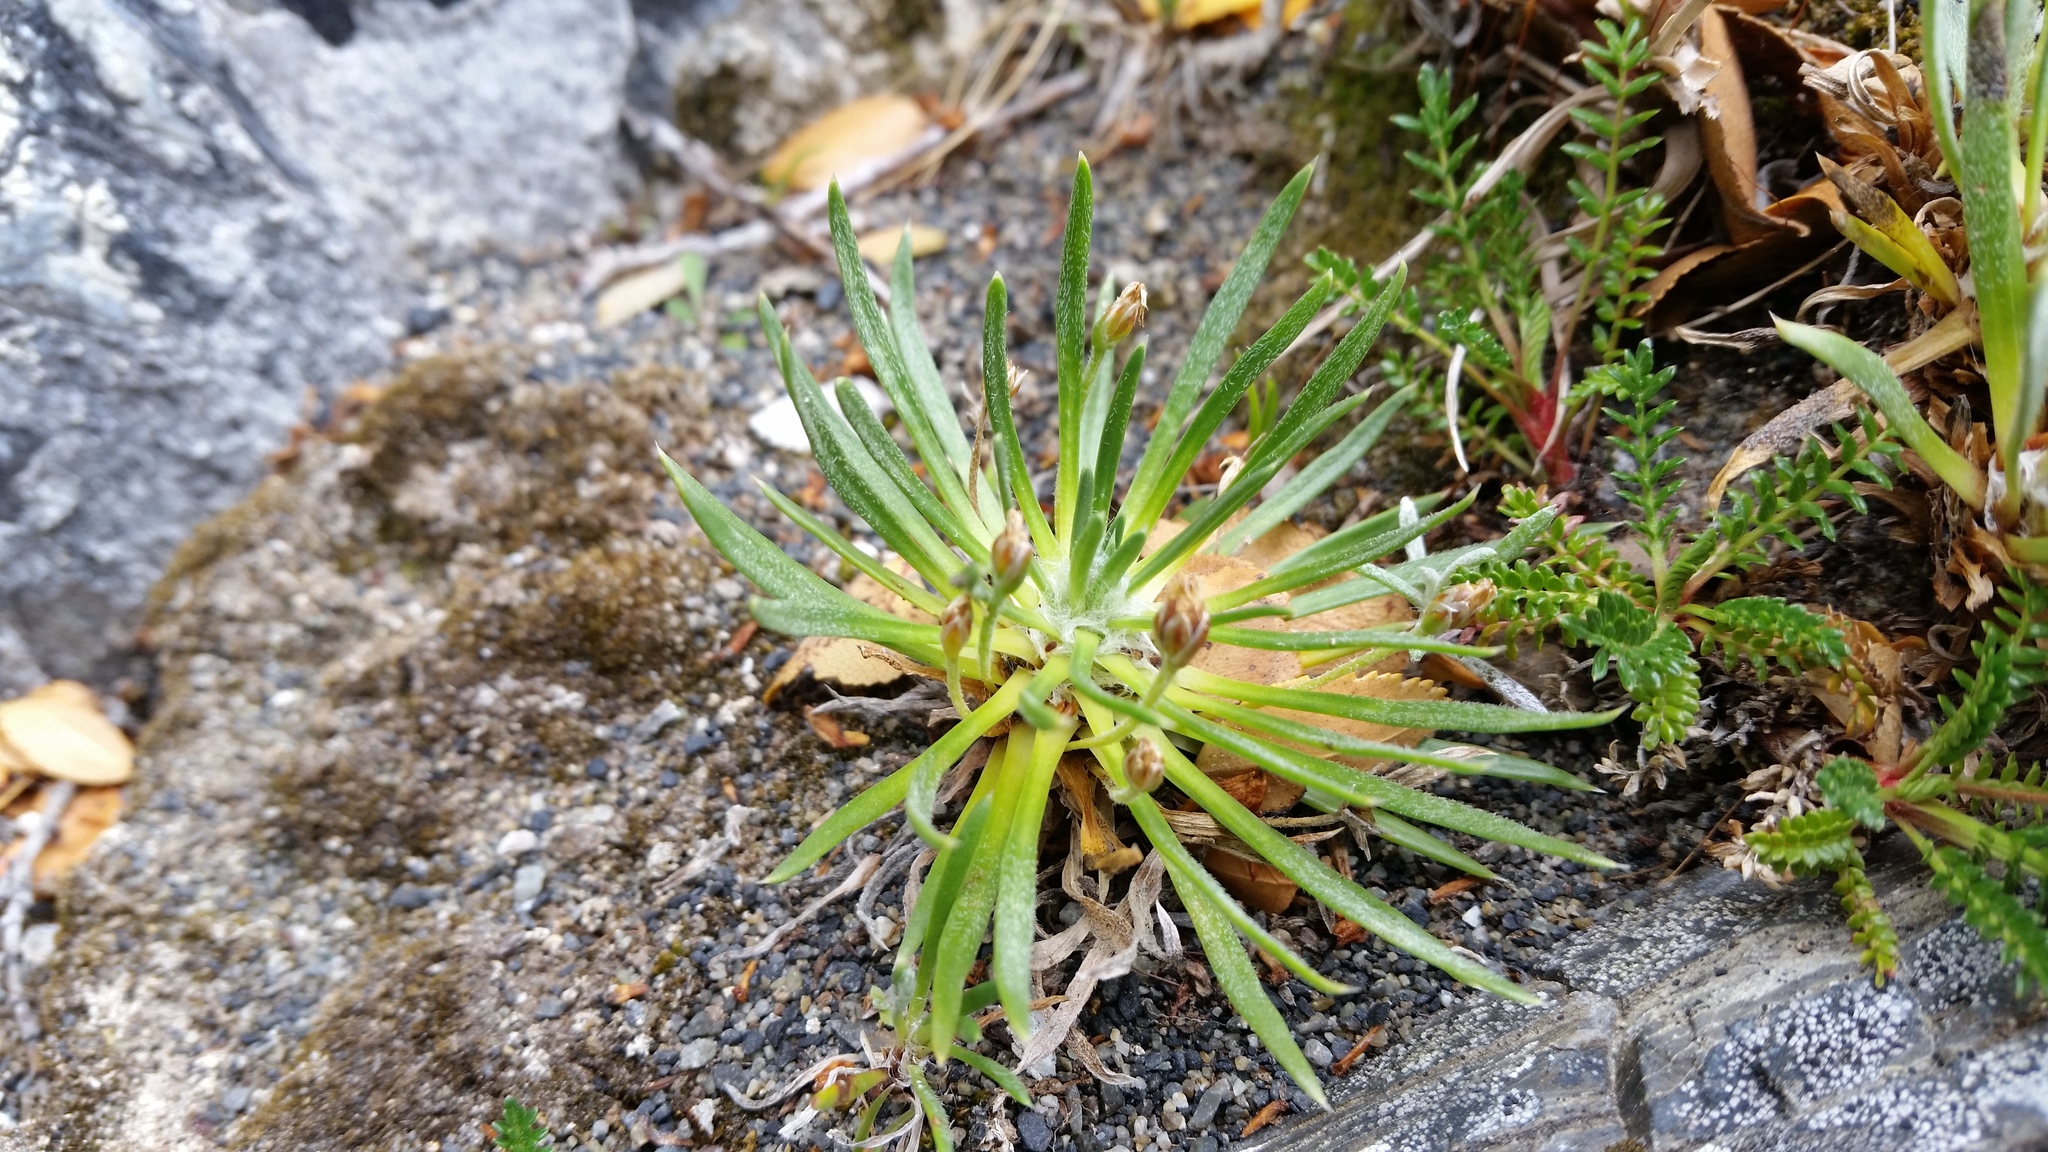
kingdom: Plantae
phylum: Tracheophyta
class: Magnoliopsida
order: Lamiales
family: Plantaginaceae
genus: Plantago
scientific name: Plantago barbata
